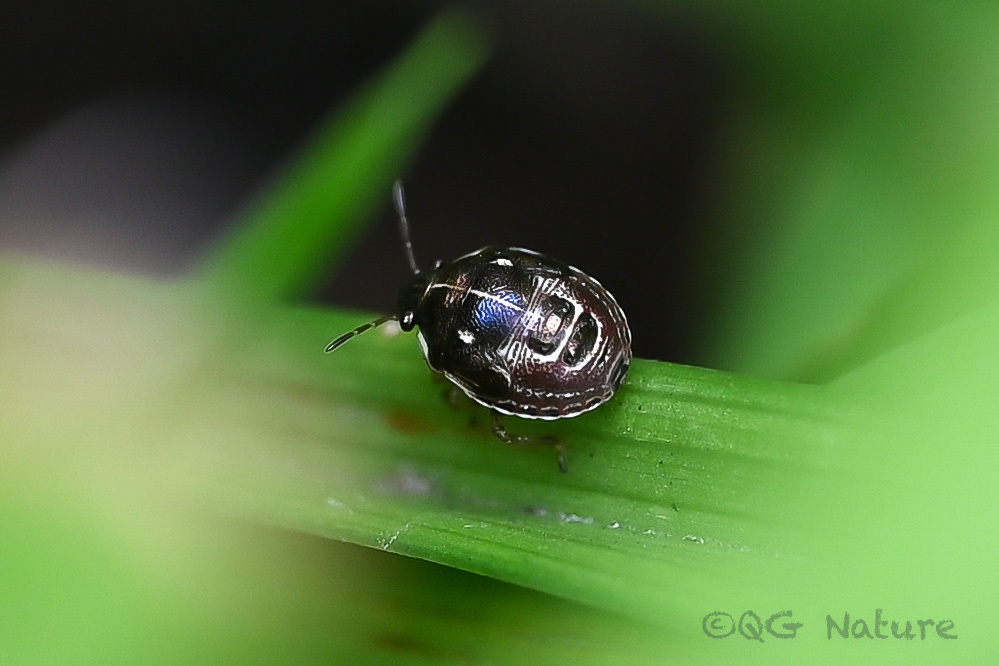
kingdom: Animalia
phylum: Arthropoda
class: Insecta
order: Hemiptera
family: Pentatomidae
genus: Eysarcoris
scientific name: Eysarcoris guttigerus
